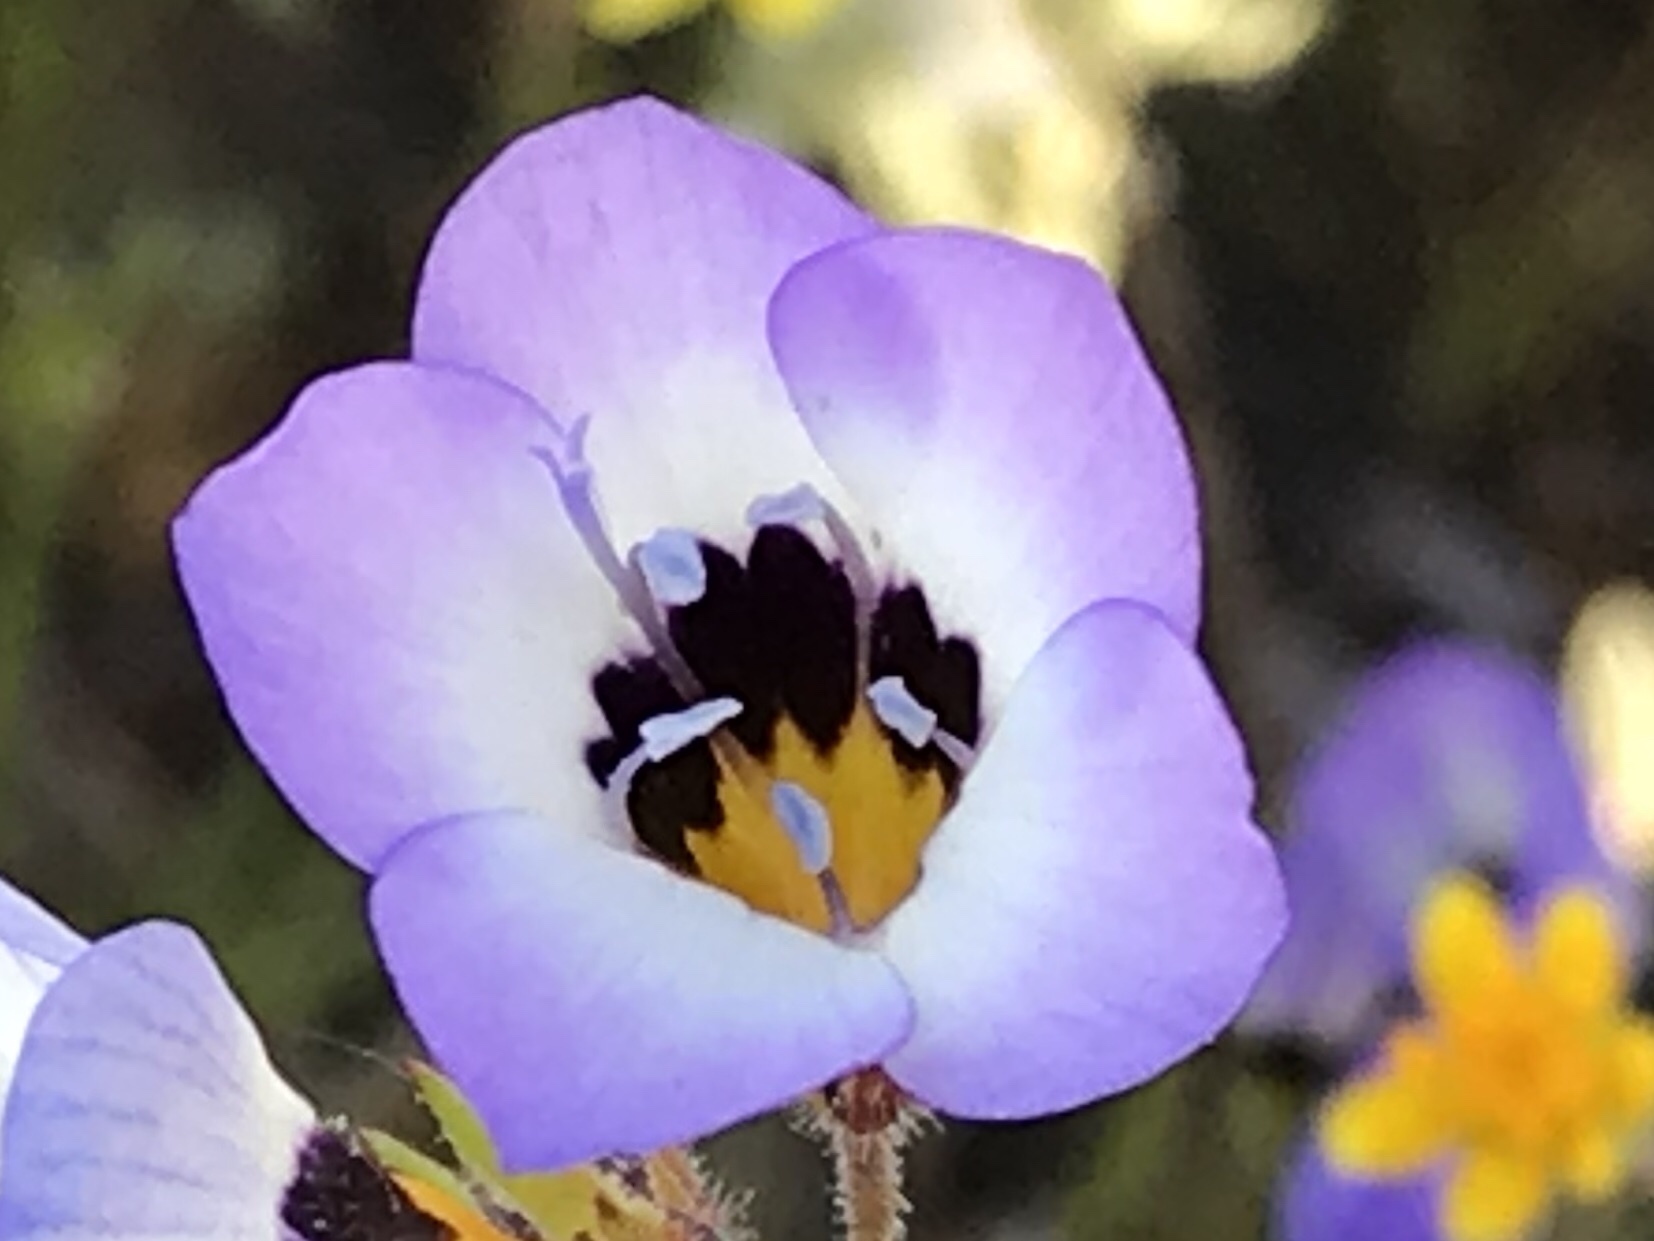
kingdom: Plantae
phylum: Tracheophyta
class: Magnoliopsida
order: Ericales
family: Polemoniaceae
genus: Gilia
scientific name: Gilia tricolor
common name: Bird's-eyes
